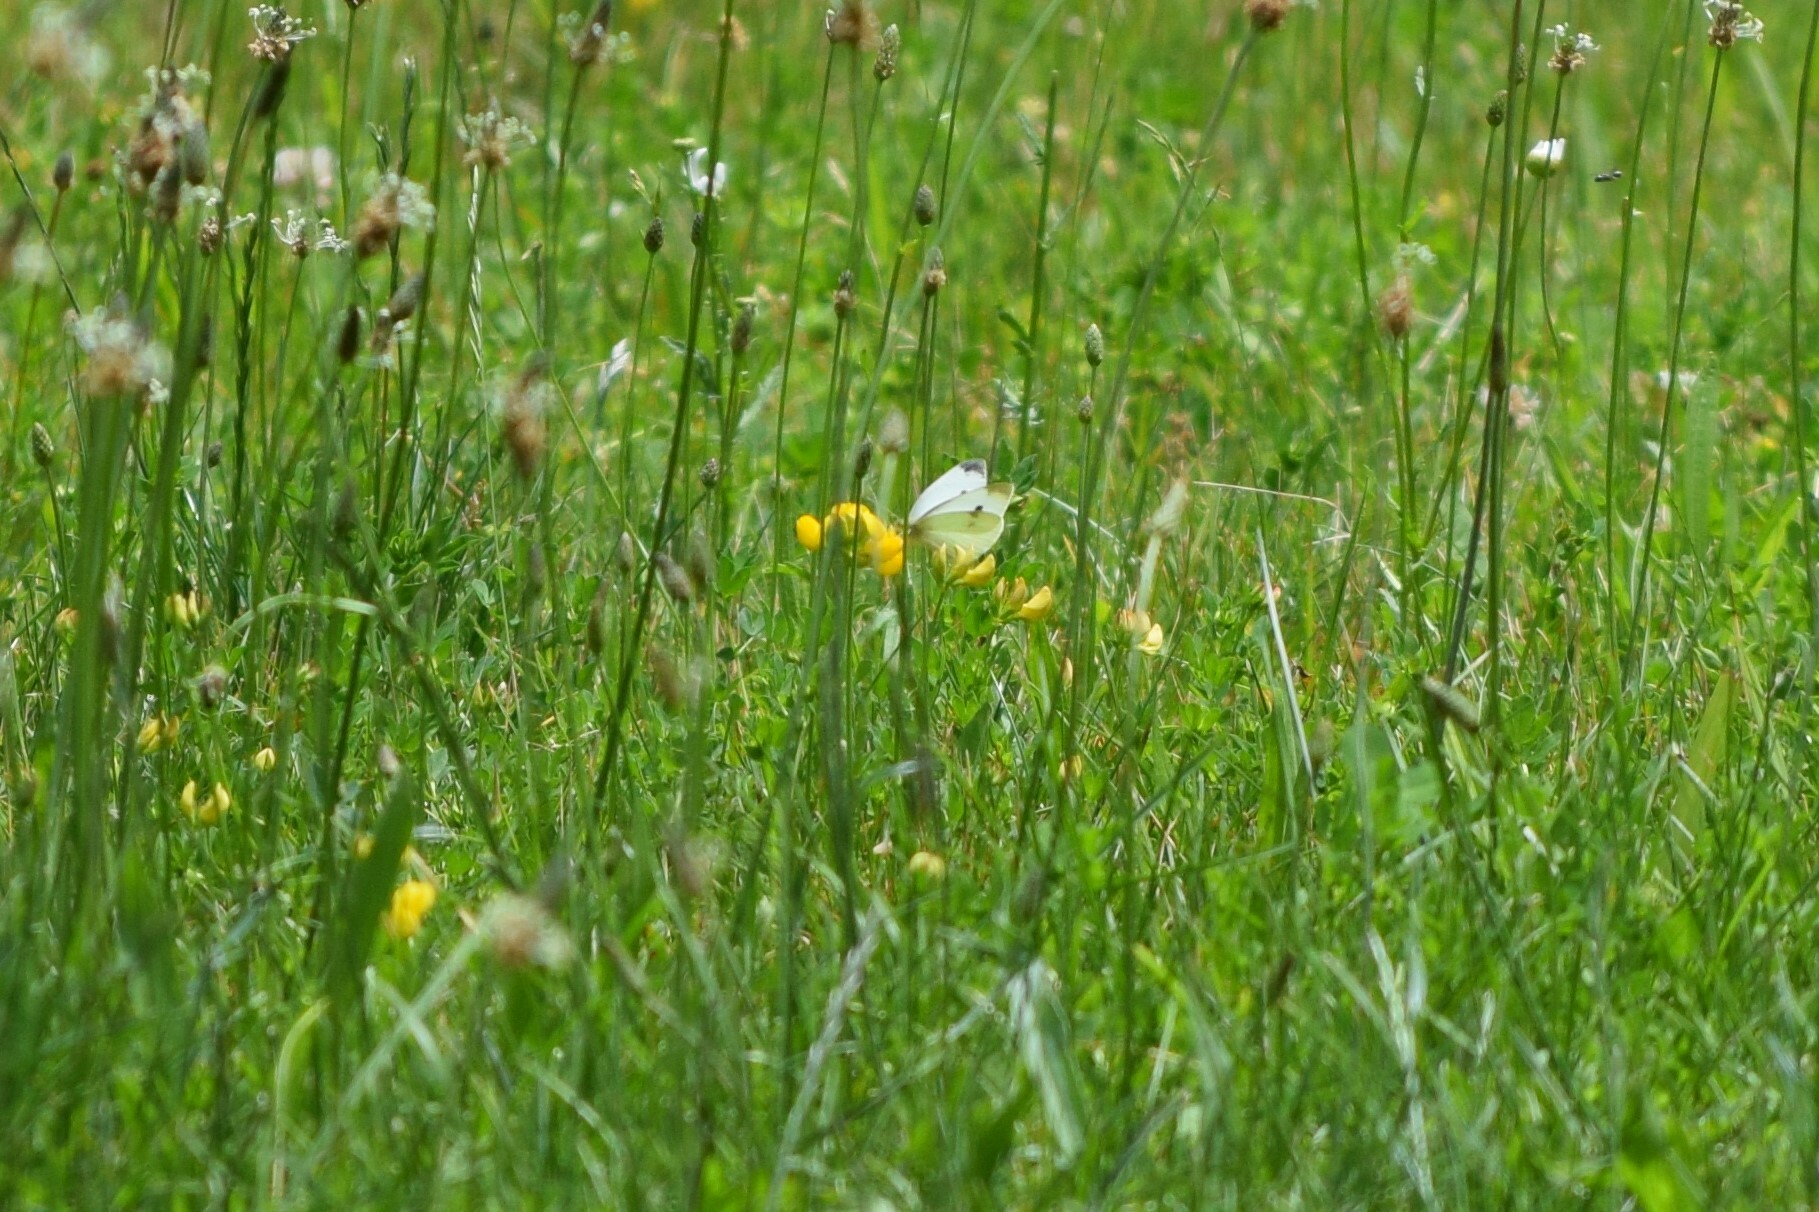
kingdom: Animalia
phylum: Arthropoda
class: Insecta
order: Lepidoptera
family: Pieridae
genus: Pieris
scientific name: Pieris rapae
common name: Small white
